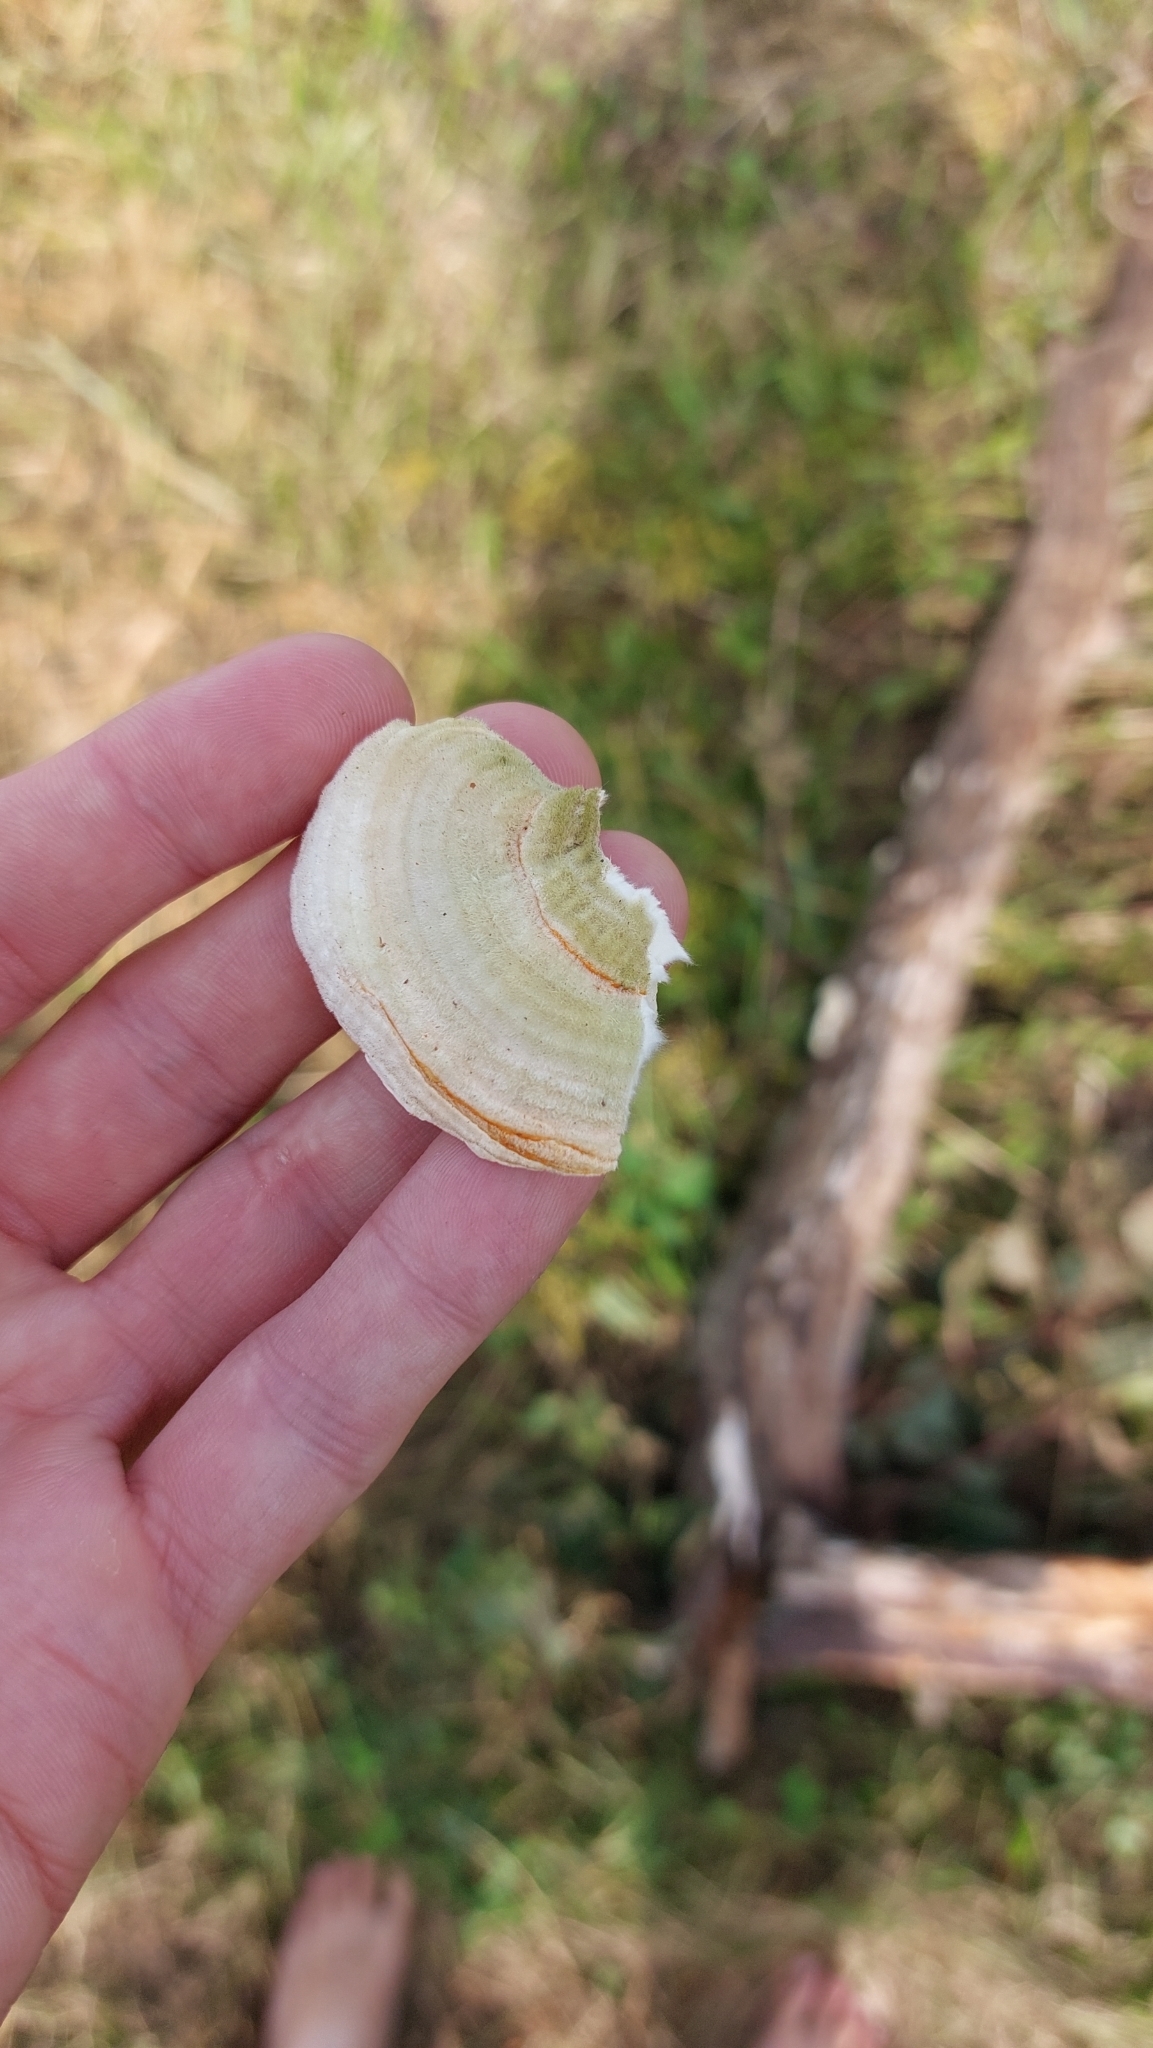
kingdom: Fungi
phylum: Basidiomycota
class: Agaricomycetes
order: Polyporales
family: Polyporaceae
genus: Lenzites
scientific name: Lenzites betulinus
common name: Birch mazegill
